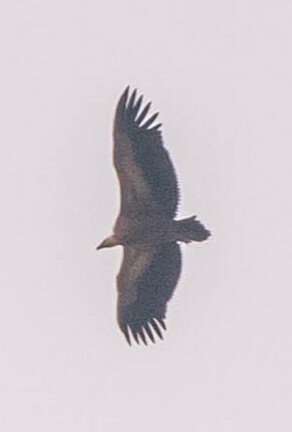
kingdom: Animalia
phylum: Chordata
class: Aves
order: Accipitriformes
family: Accipitridae
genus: Gyps
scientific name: Gyps fulvus
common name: Griffon vulture
